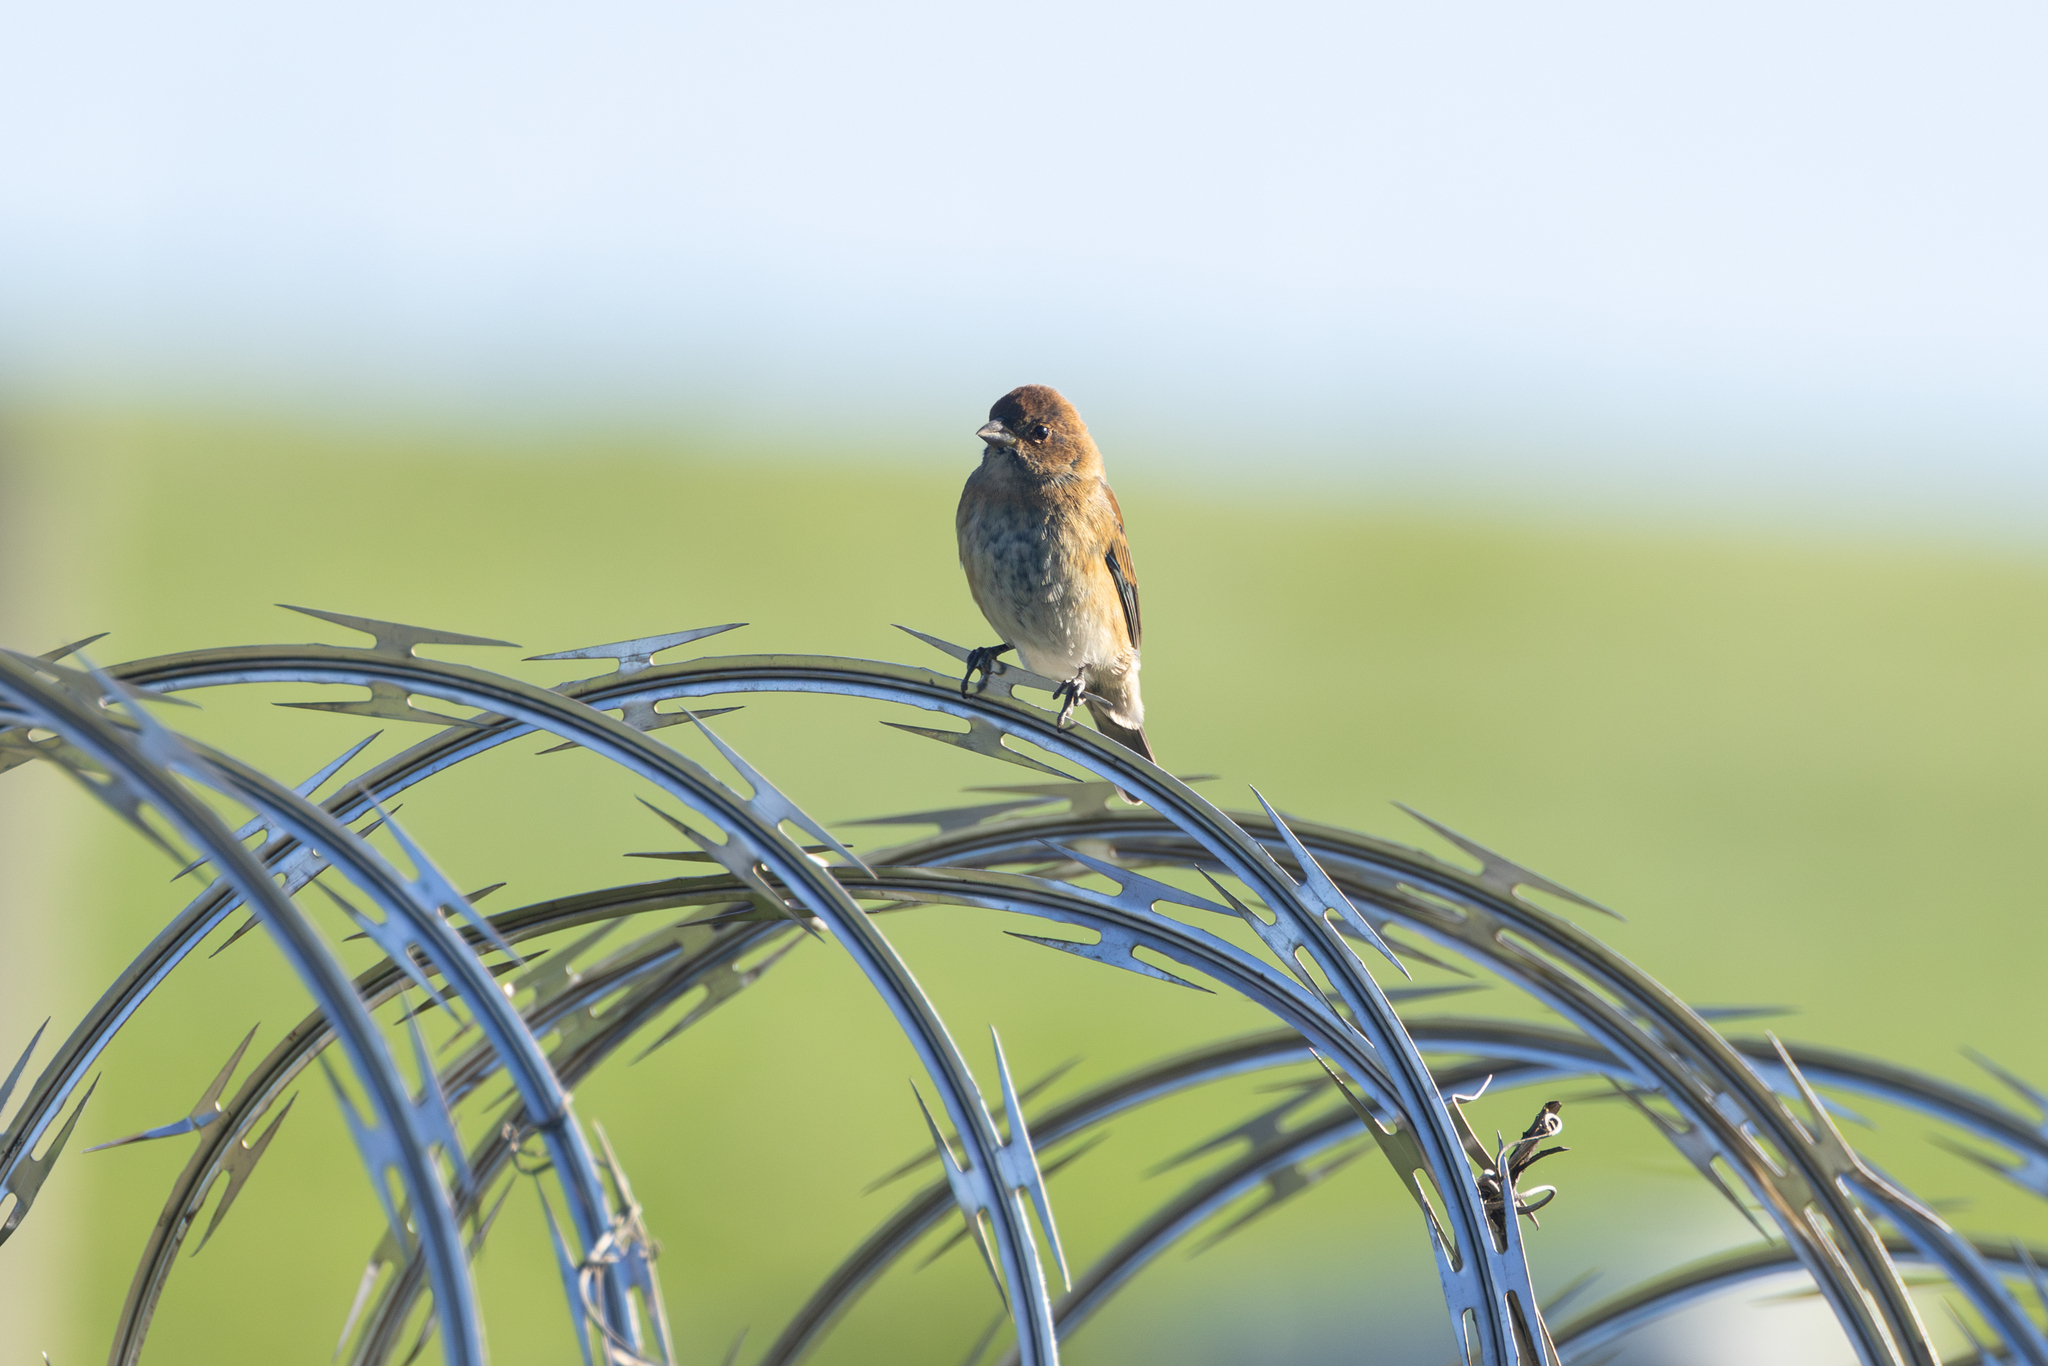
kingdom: Animalia
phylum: Chordata
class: Aves
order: Passeriformes
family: Cardinalidae
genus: Passerina
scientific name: Passerina cyanea
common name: Indigo bunting
